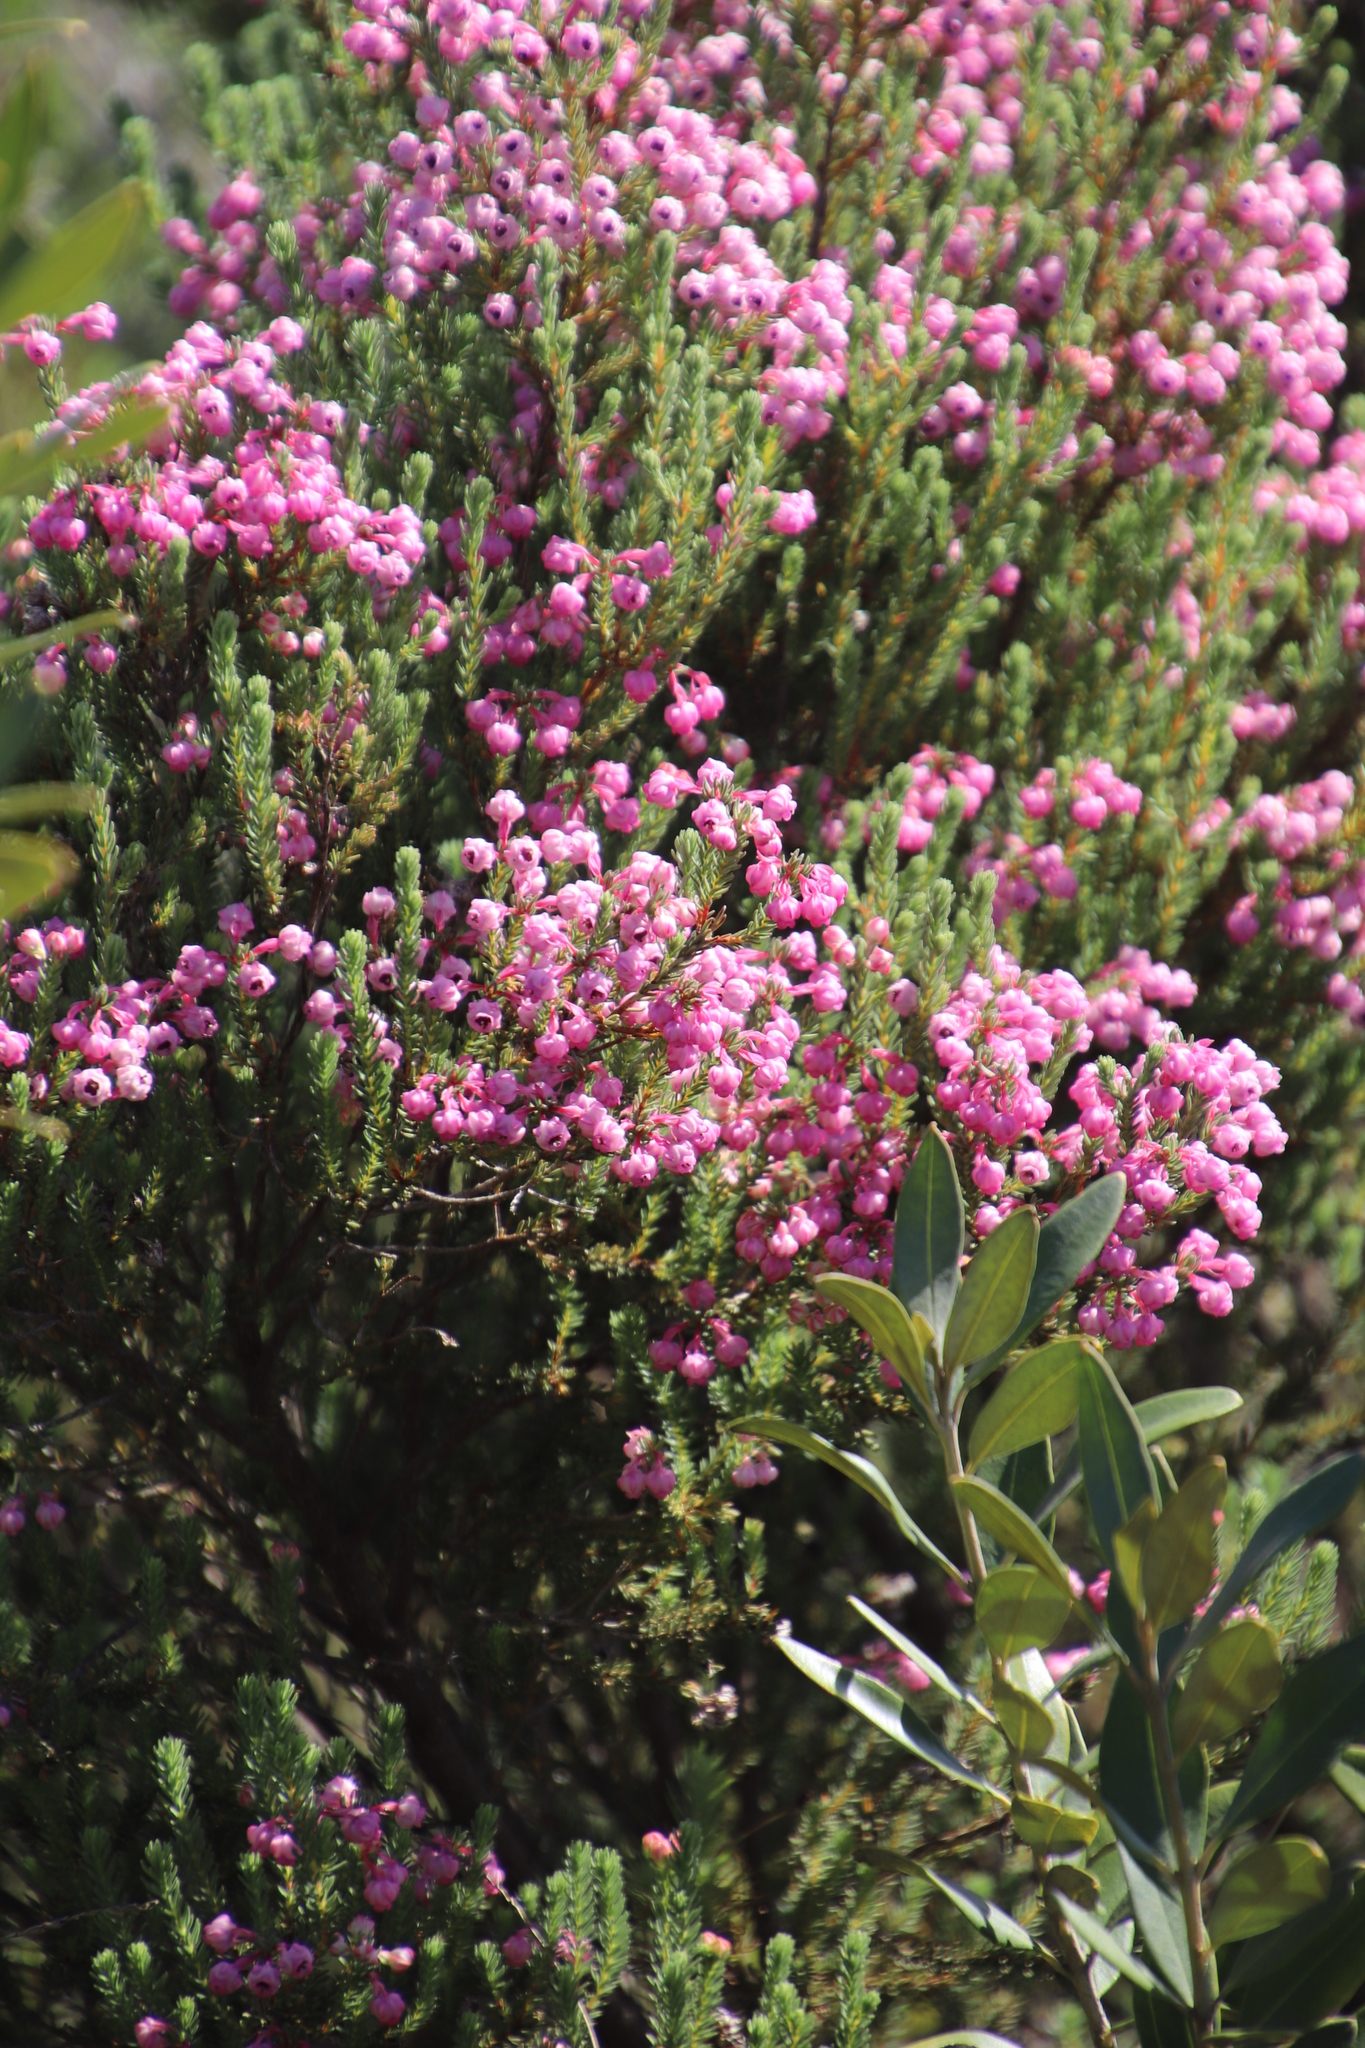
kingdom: Plantae
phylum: Tracheophyta
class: Magnoliopsida
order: Ericales
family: Ericaceae
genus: Erica
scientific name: Erica baccans
